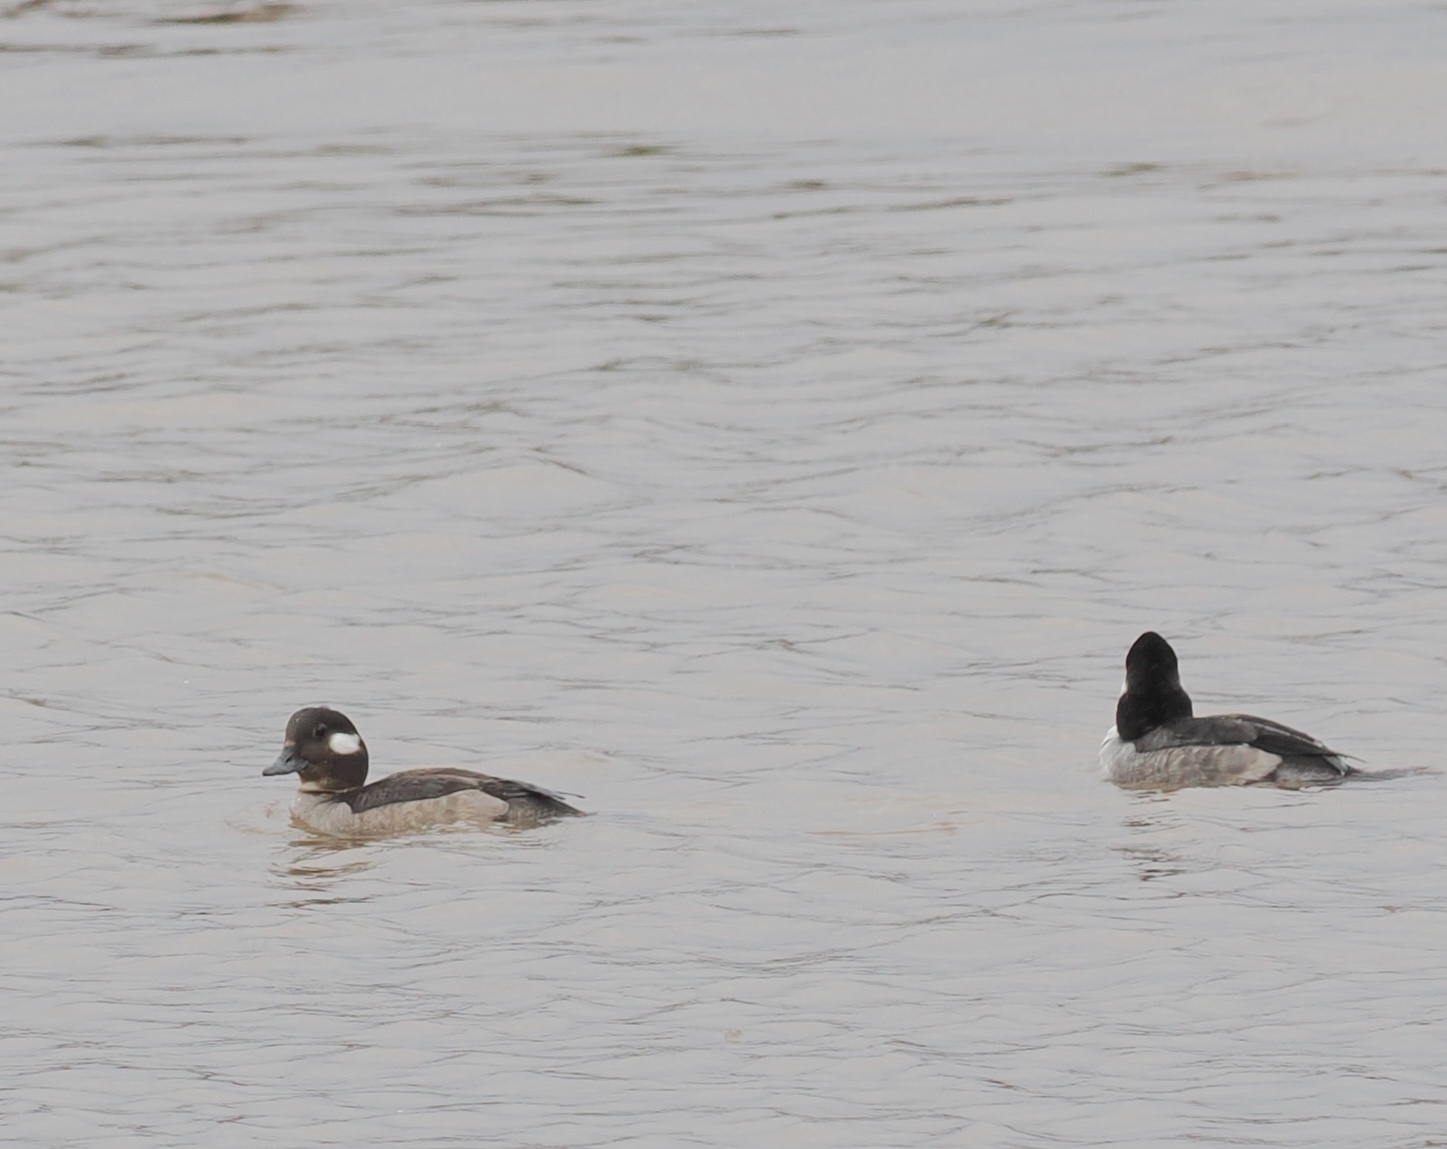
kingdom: Animalia
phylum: Chordata
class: Aves
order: Anseriformes
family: Anatidae
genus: Bucephala
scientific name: Bucephala albeola
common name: Bufflehead
